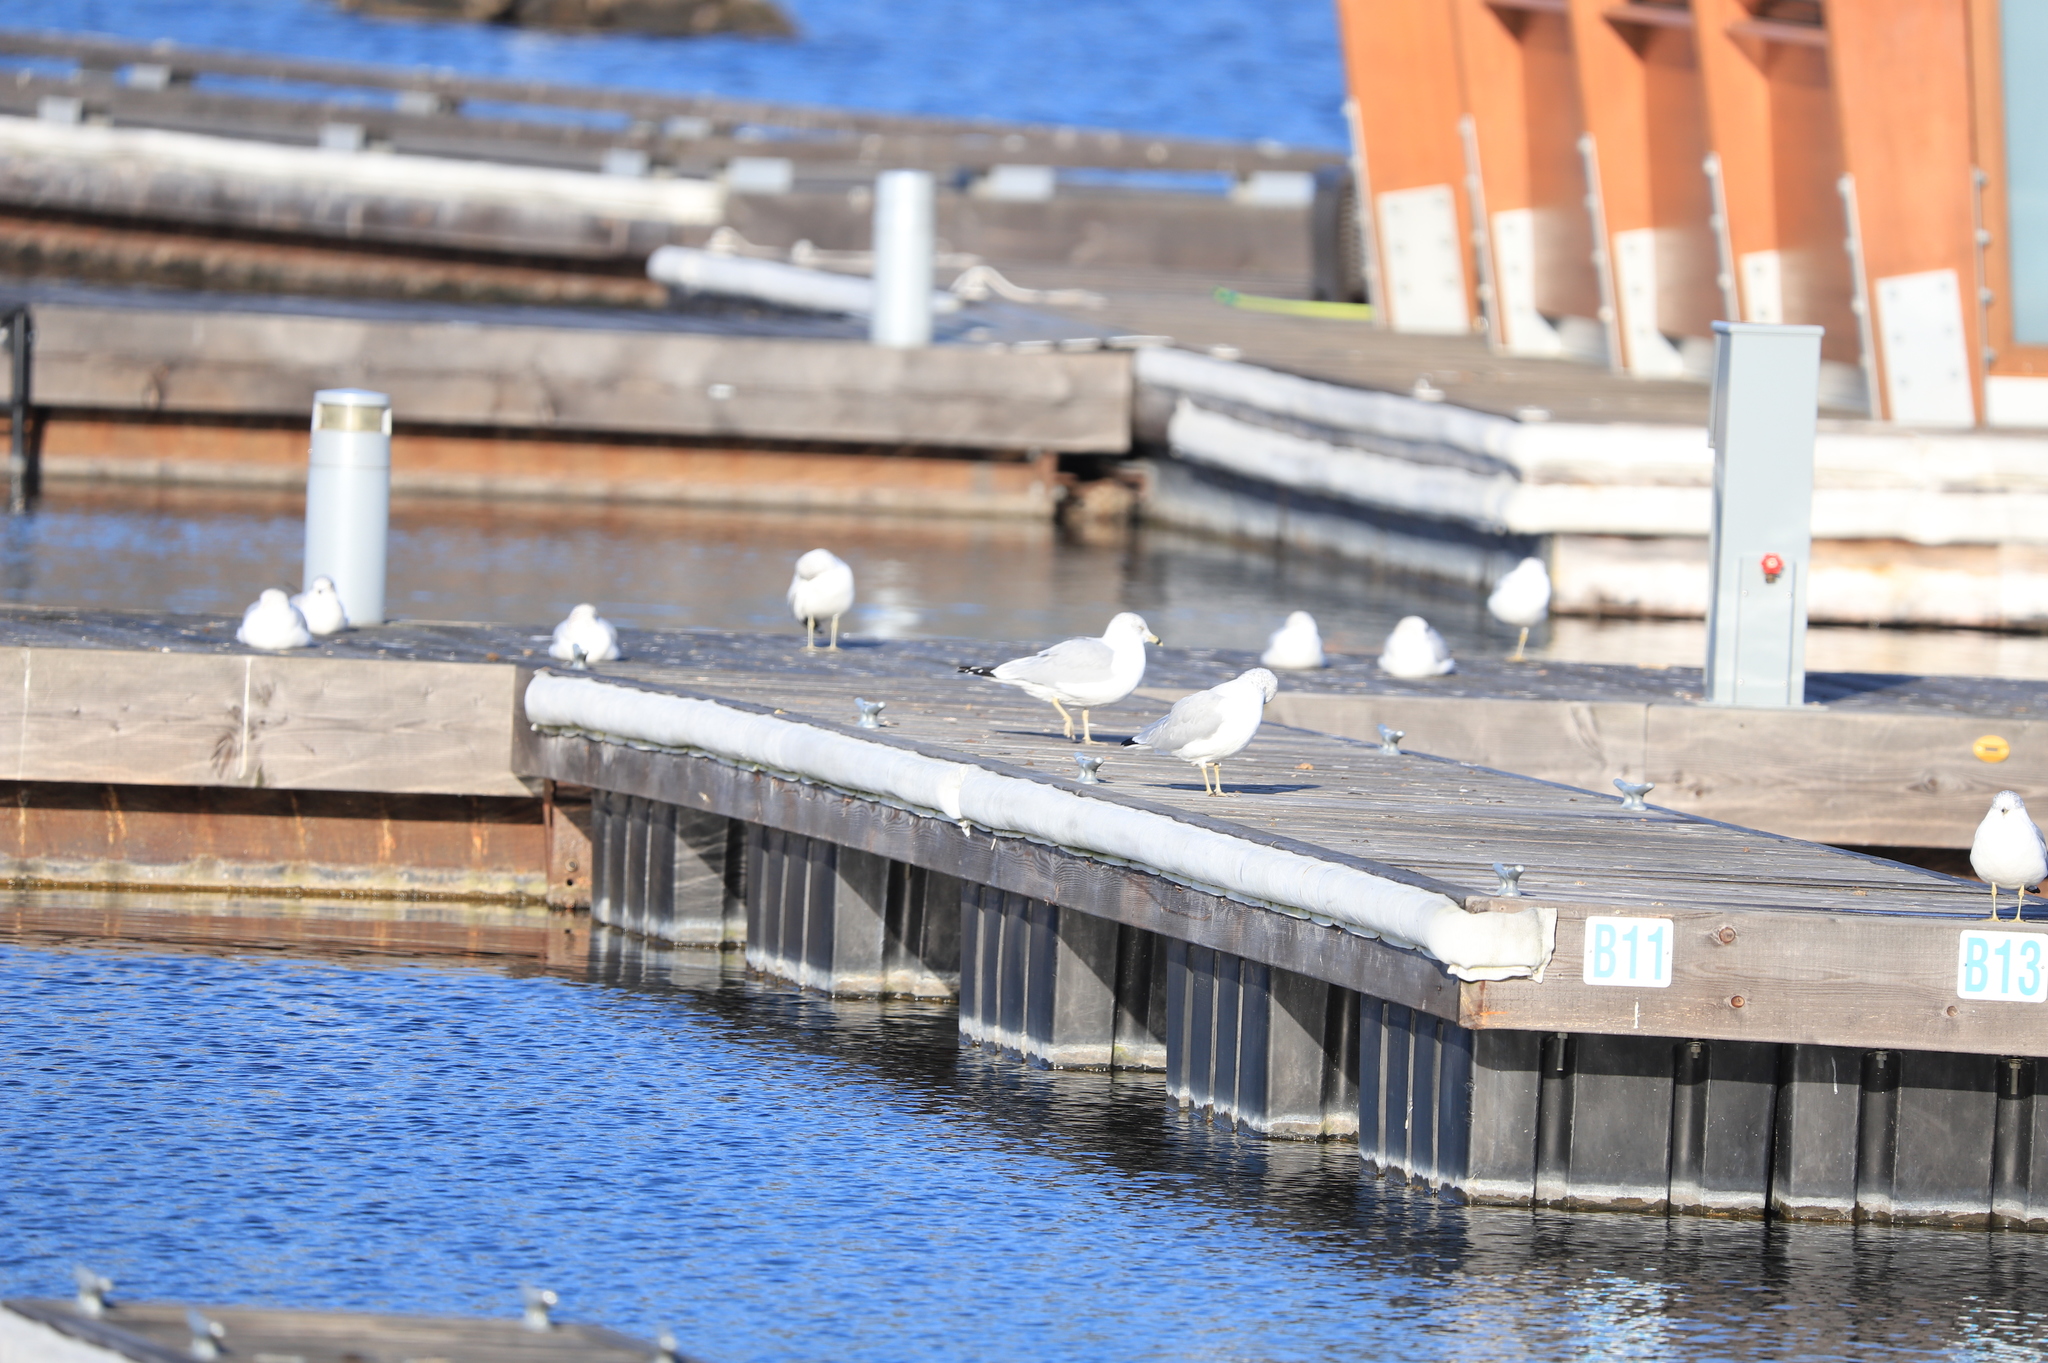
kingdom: Animalia
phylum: Chordata
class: Aves
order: Charadriiformes
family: Laridae
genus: Larus
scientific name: Larus delawarensis
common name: Ring-billed gull
